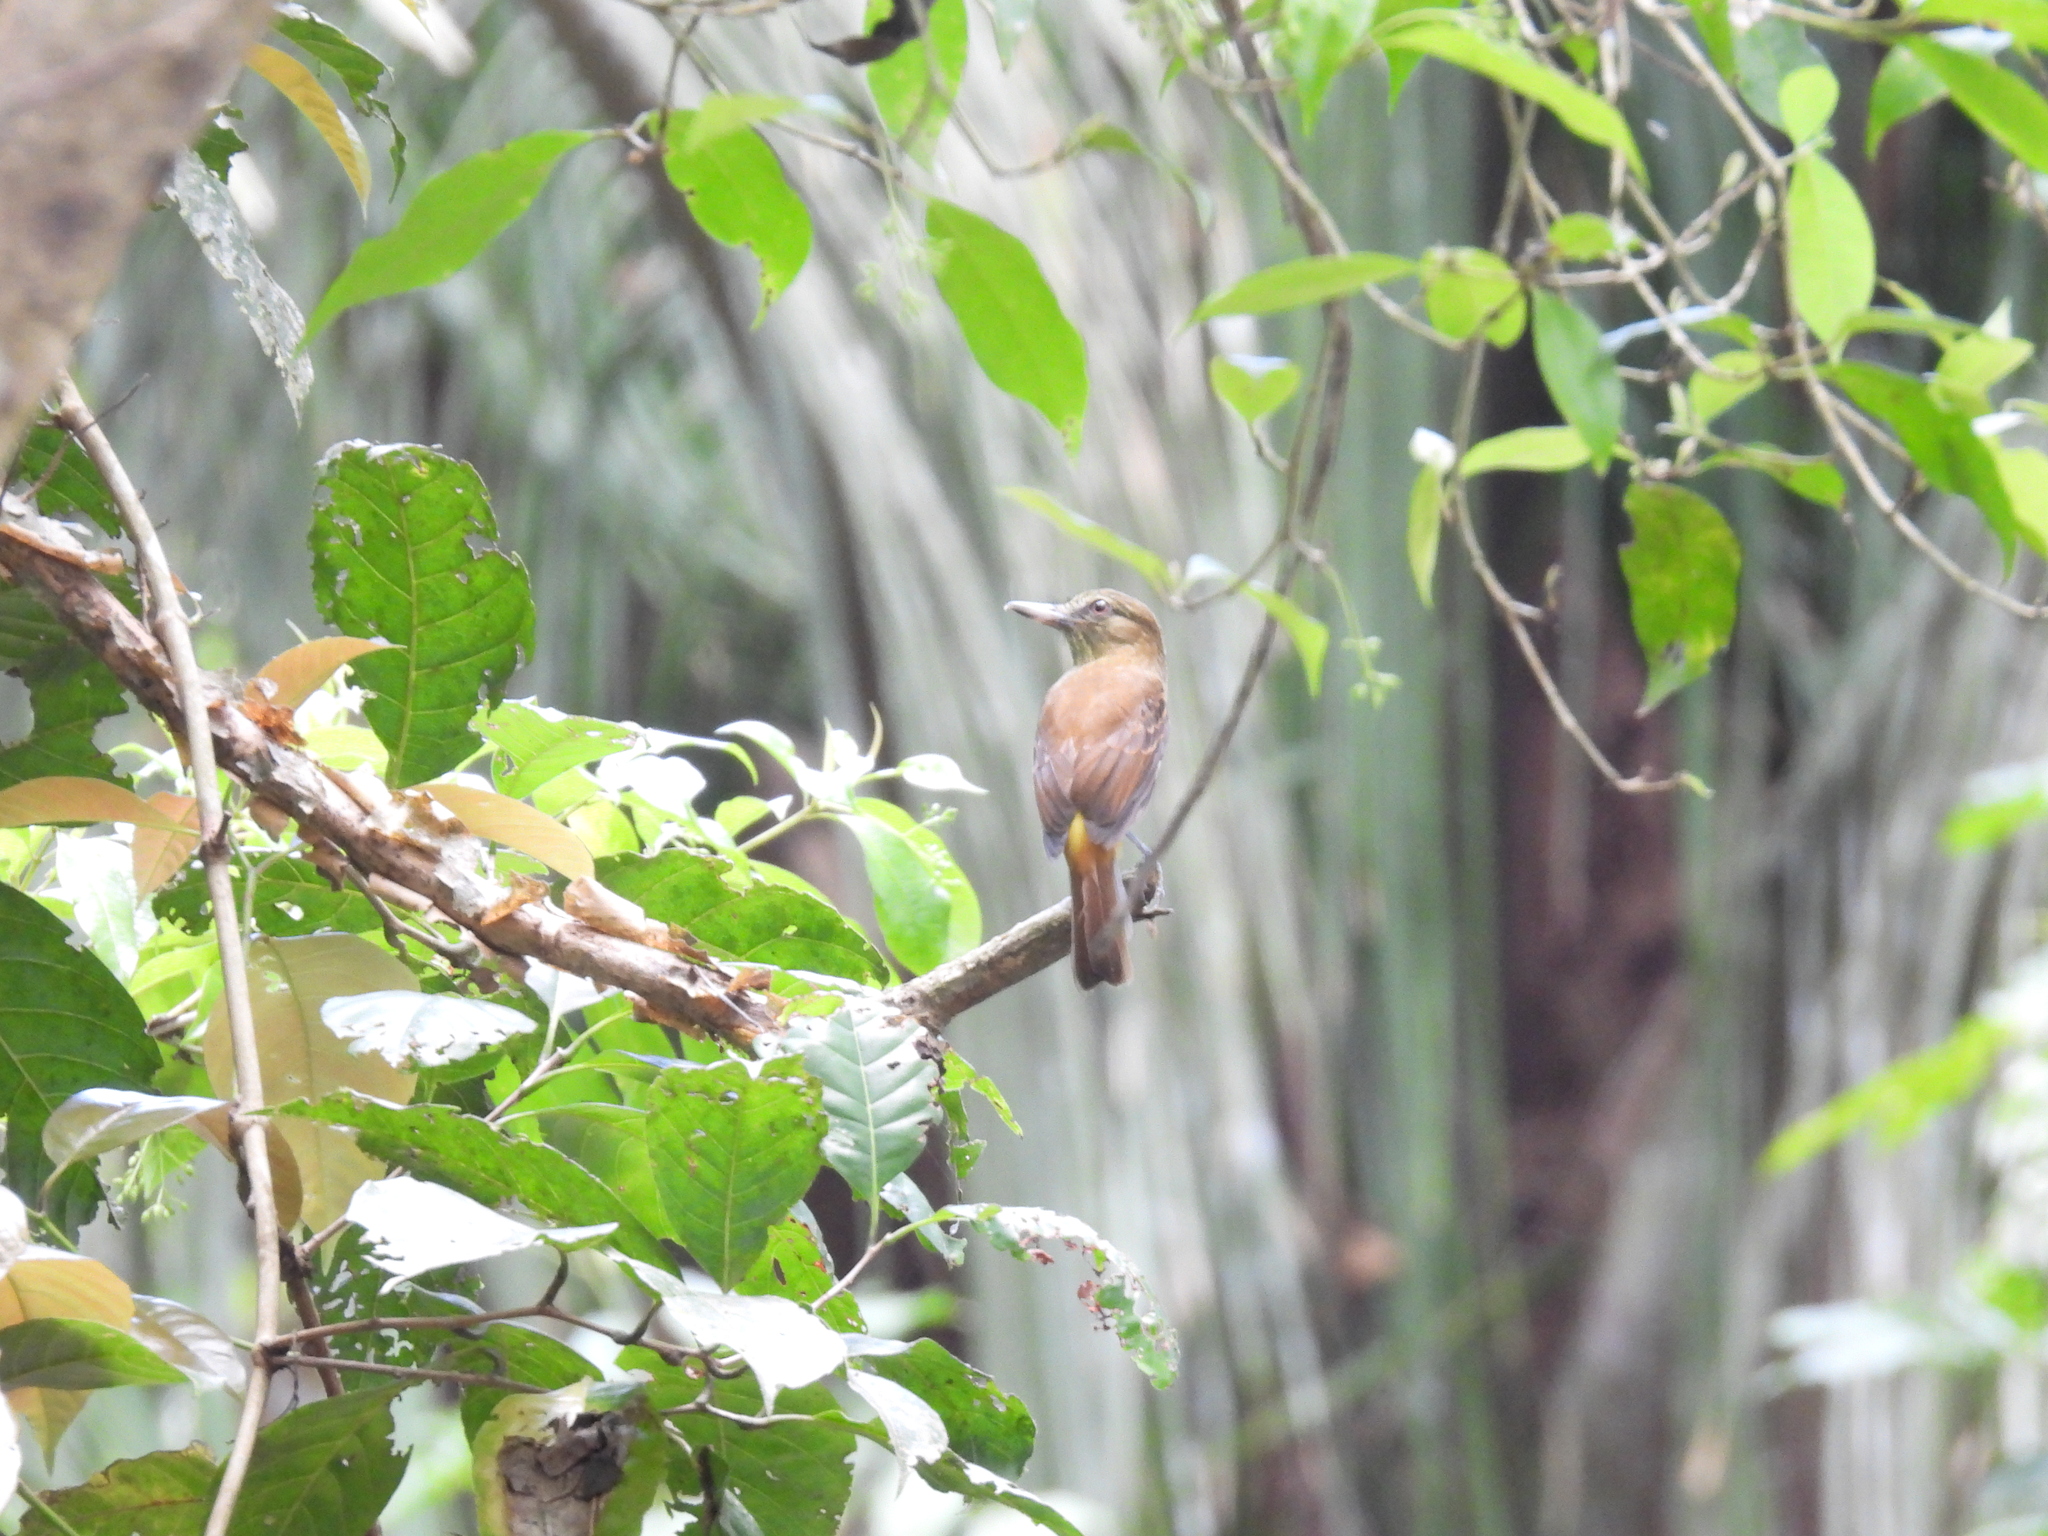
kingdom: Animalia
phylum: Chordata
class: Aves
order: Passeriformes
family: Tyrannidae
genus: Attila
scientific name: Attila spadiceus
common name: Bright-rumped attila
